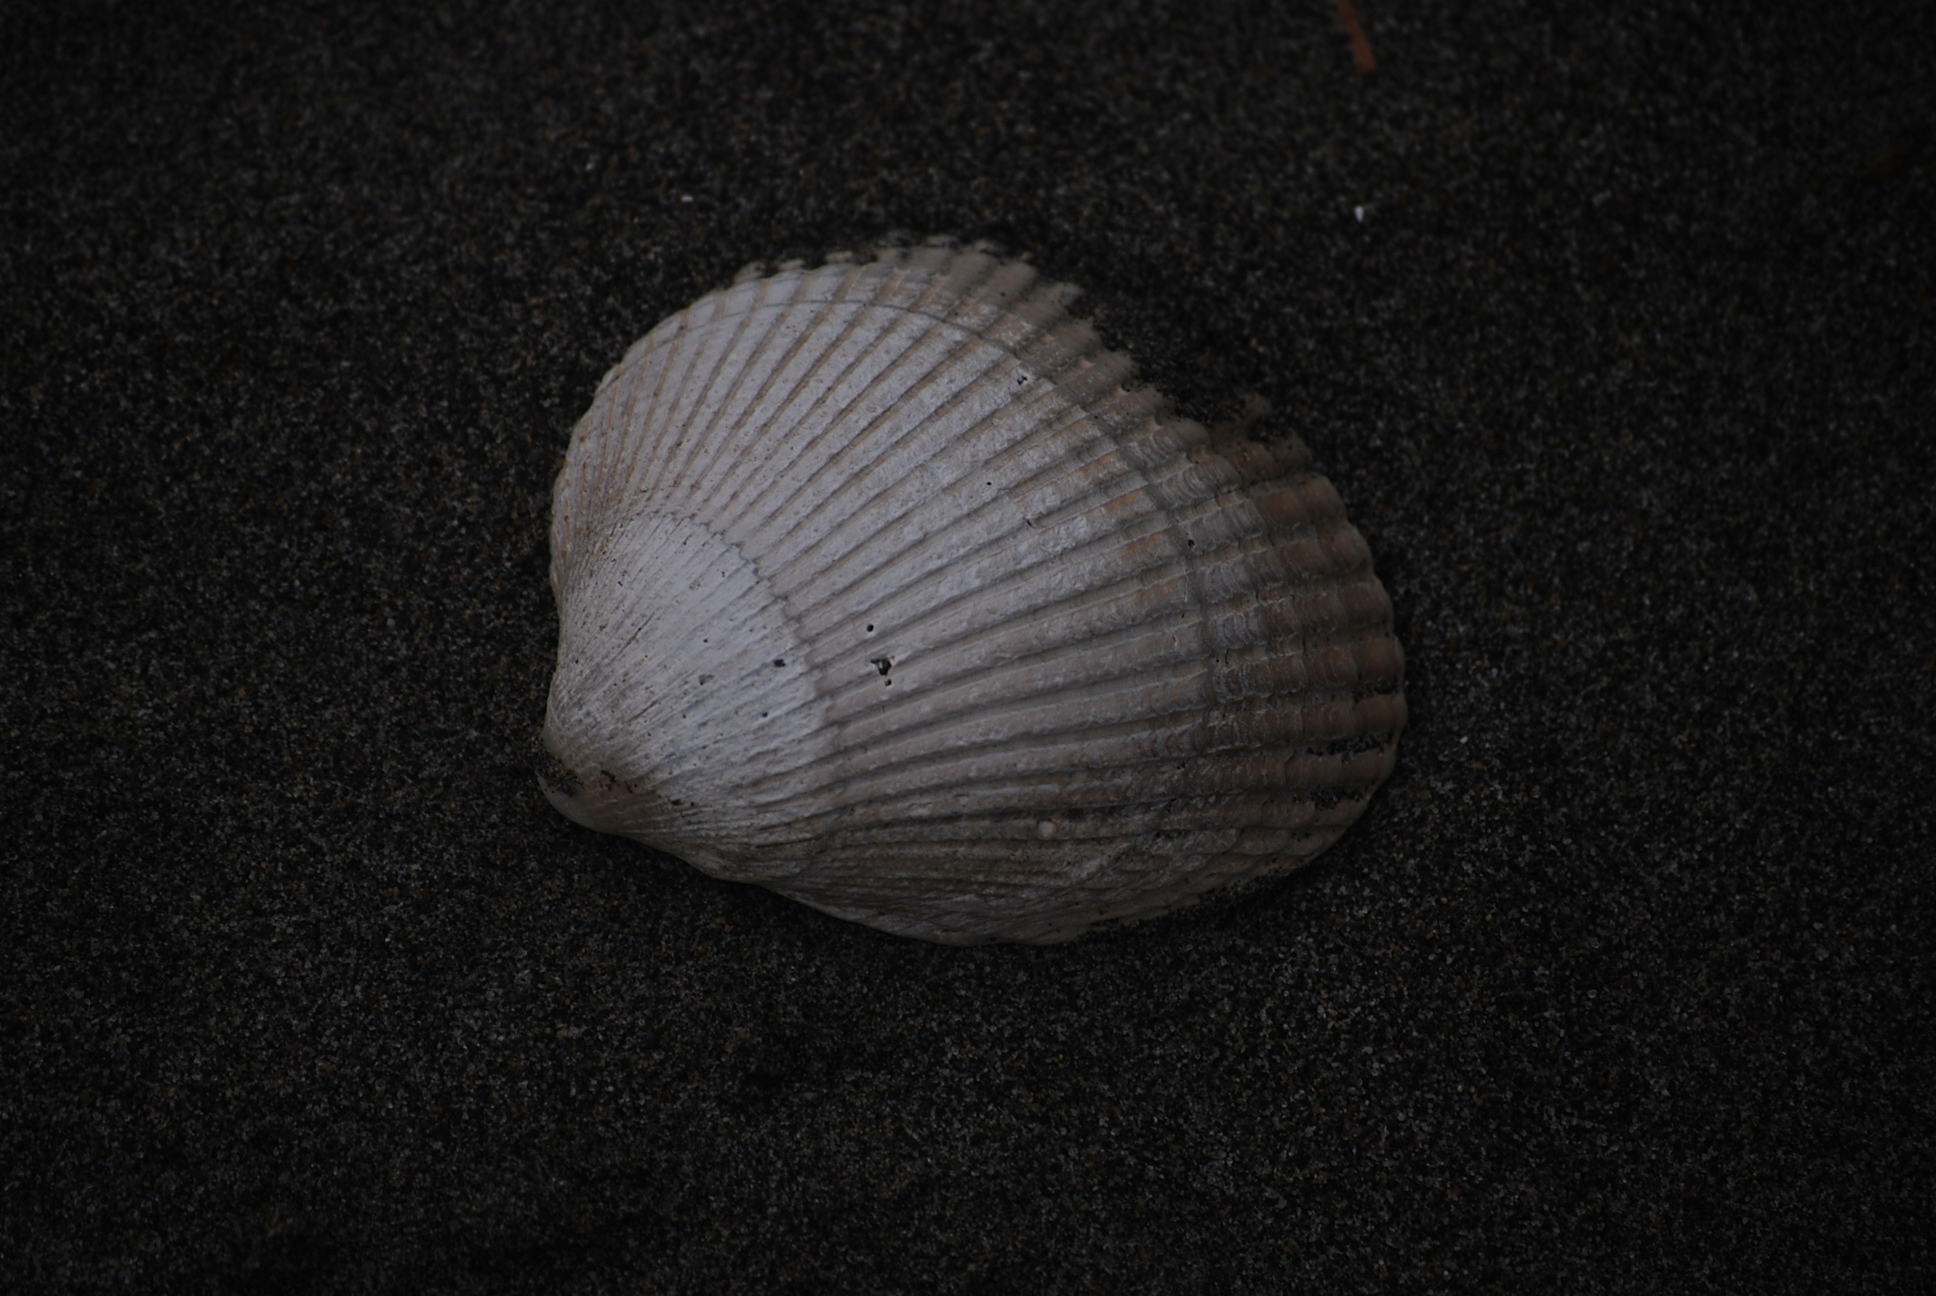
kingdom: Animalia
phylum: Mollusca
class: Bivalvia
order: Cardiida
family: Cardiidae
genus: Clinocardium
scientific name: Clinocardium nuttallii
